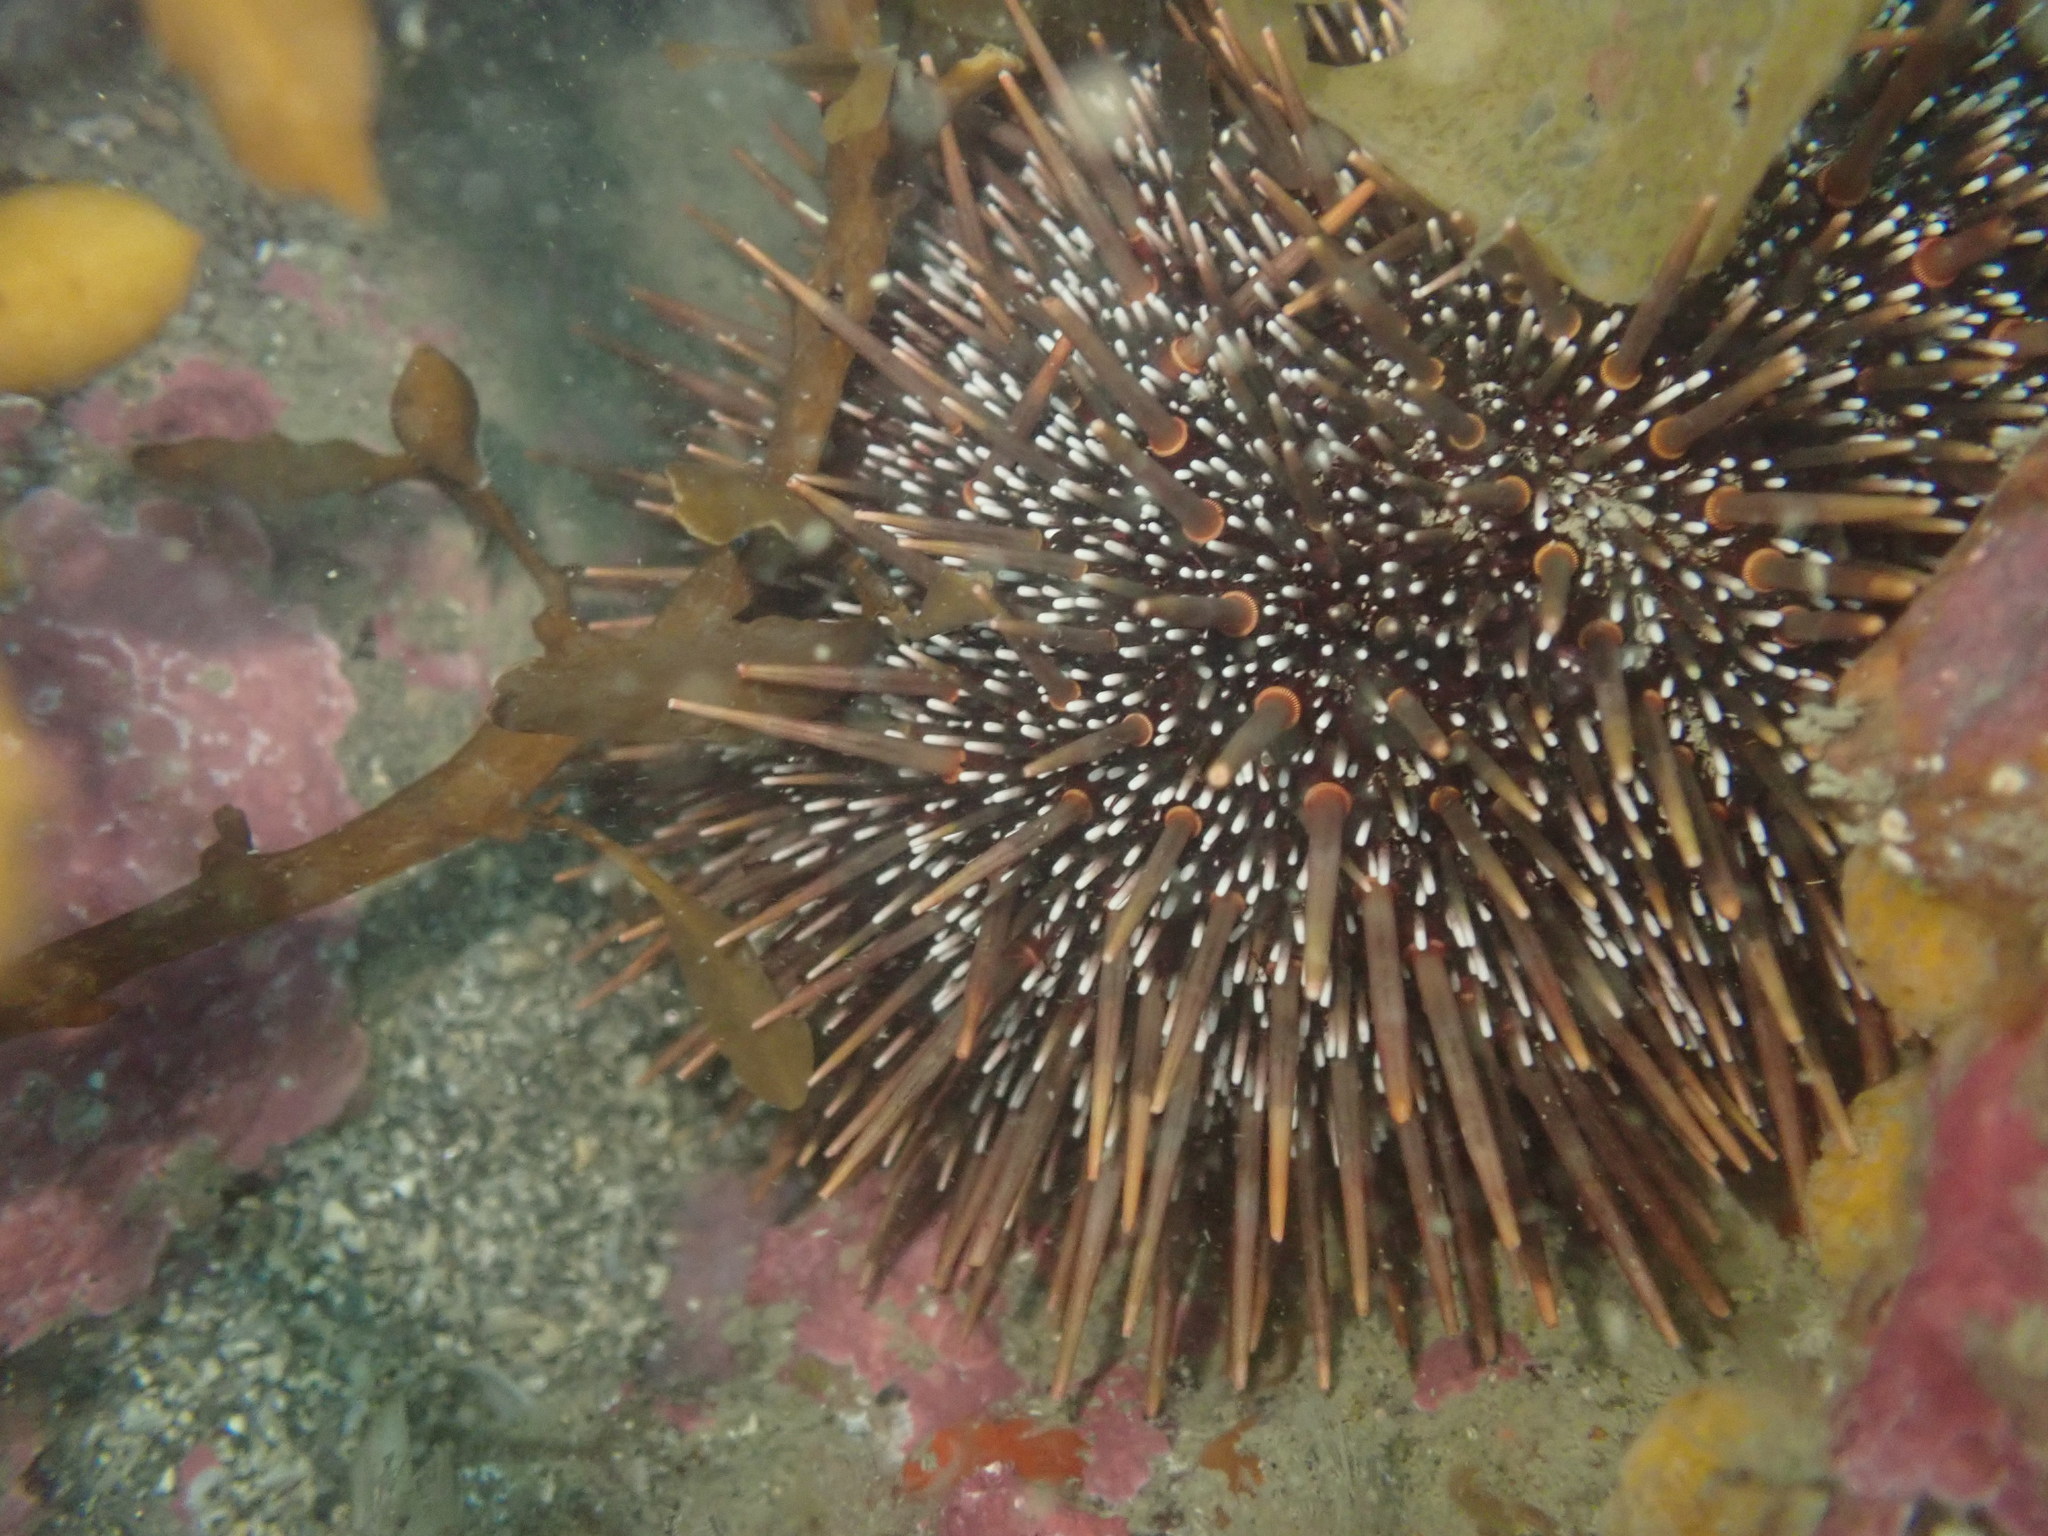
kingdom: Animalia
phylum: Echinodermata
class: Echinoidea
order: Camarodonta
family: Echinometridae
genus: Evechinus
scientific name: Evechinus chloroticus
